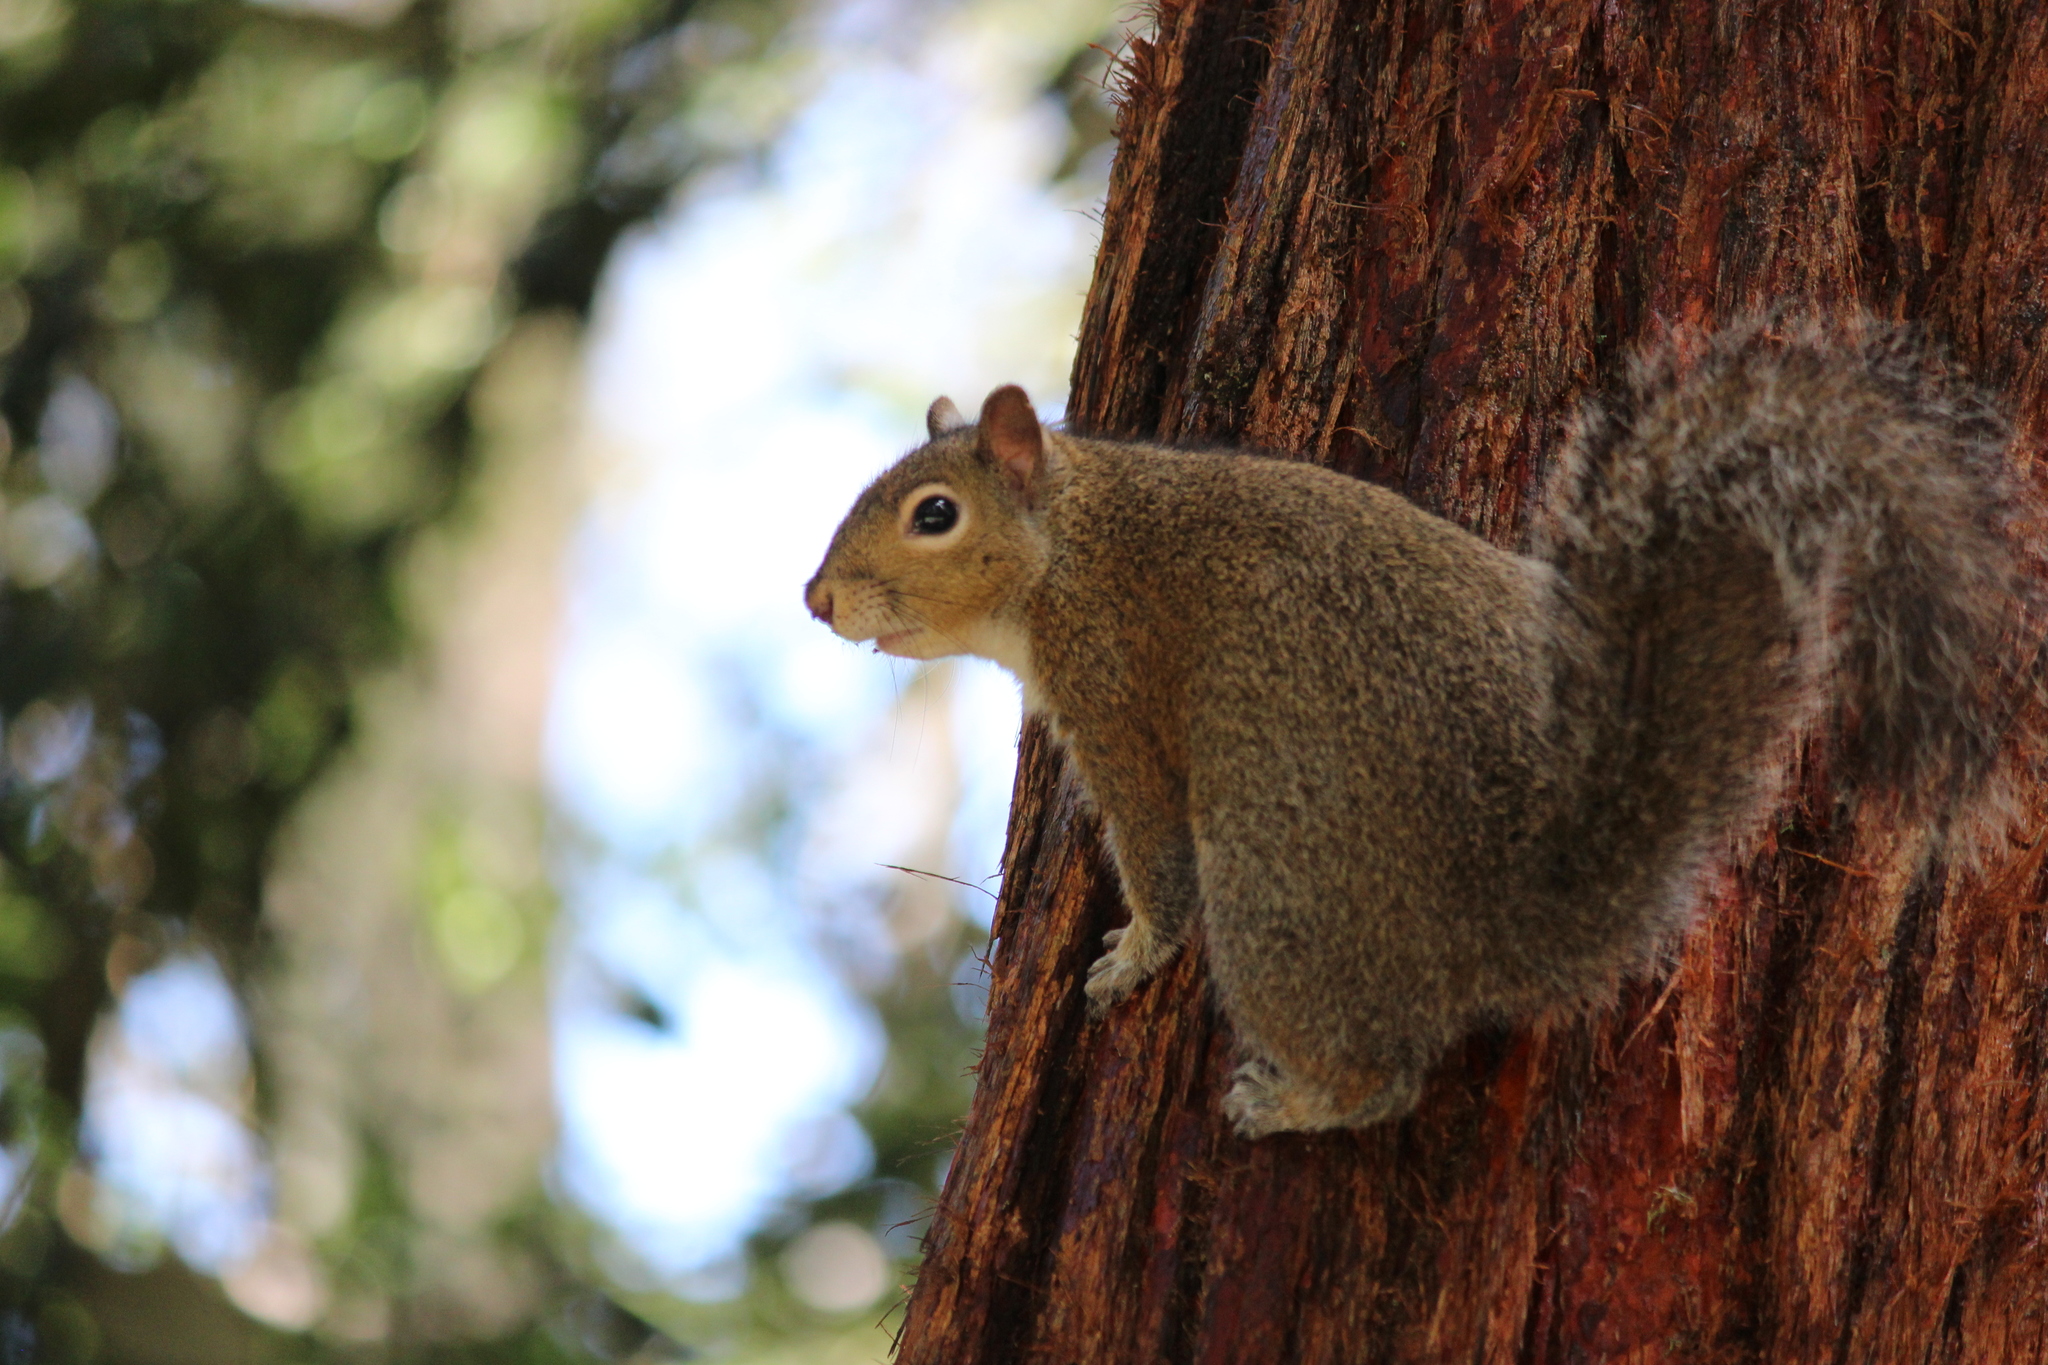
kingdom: Animalia
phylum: Chordata
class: Mammalia
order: Rodentia
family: Sciuridae
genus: Sciurus
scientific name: Sciurus carolinensis
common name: Eastern gray squirrel
